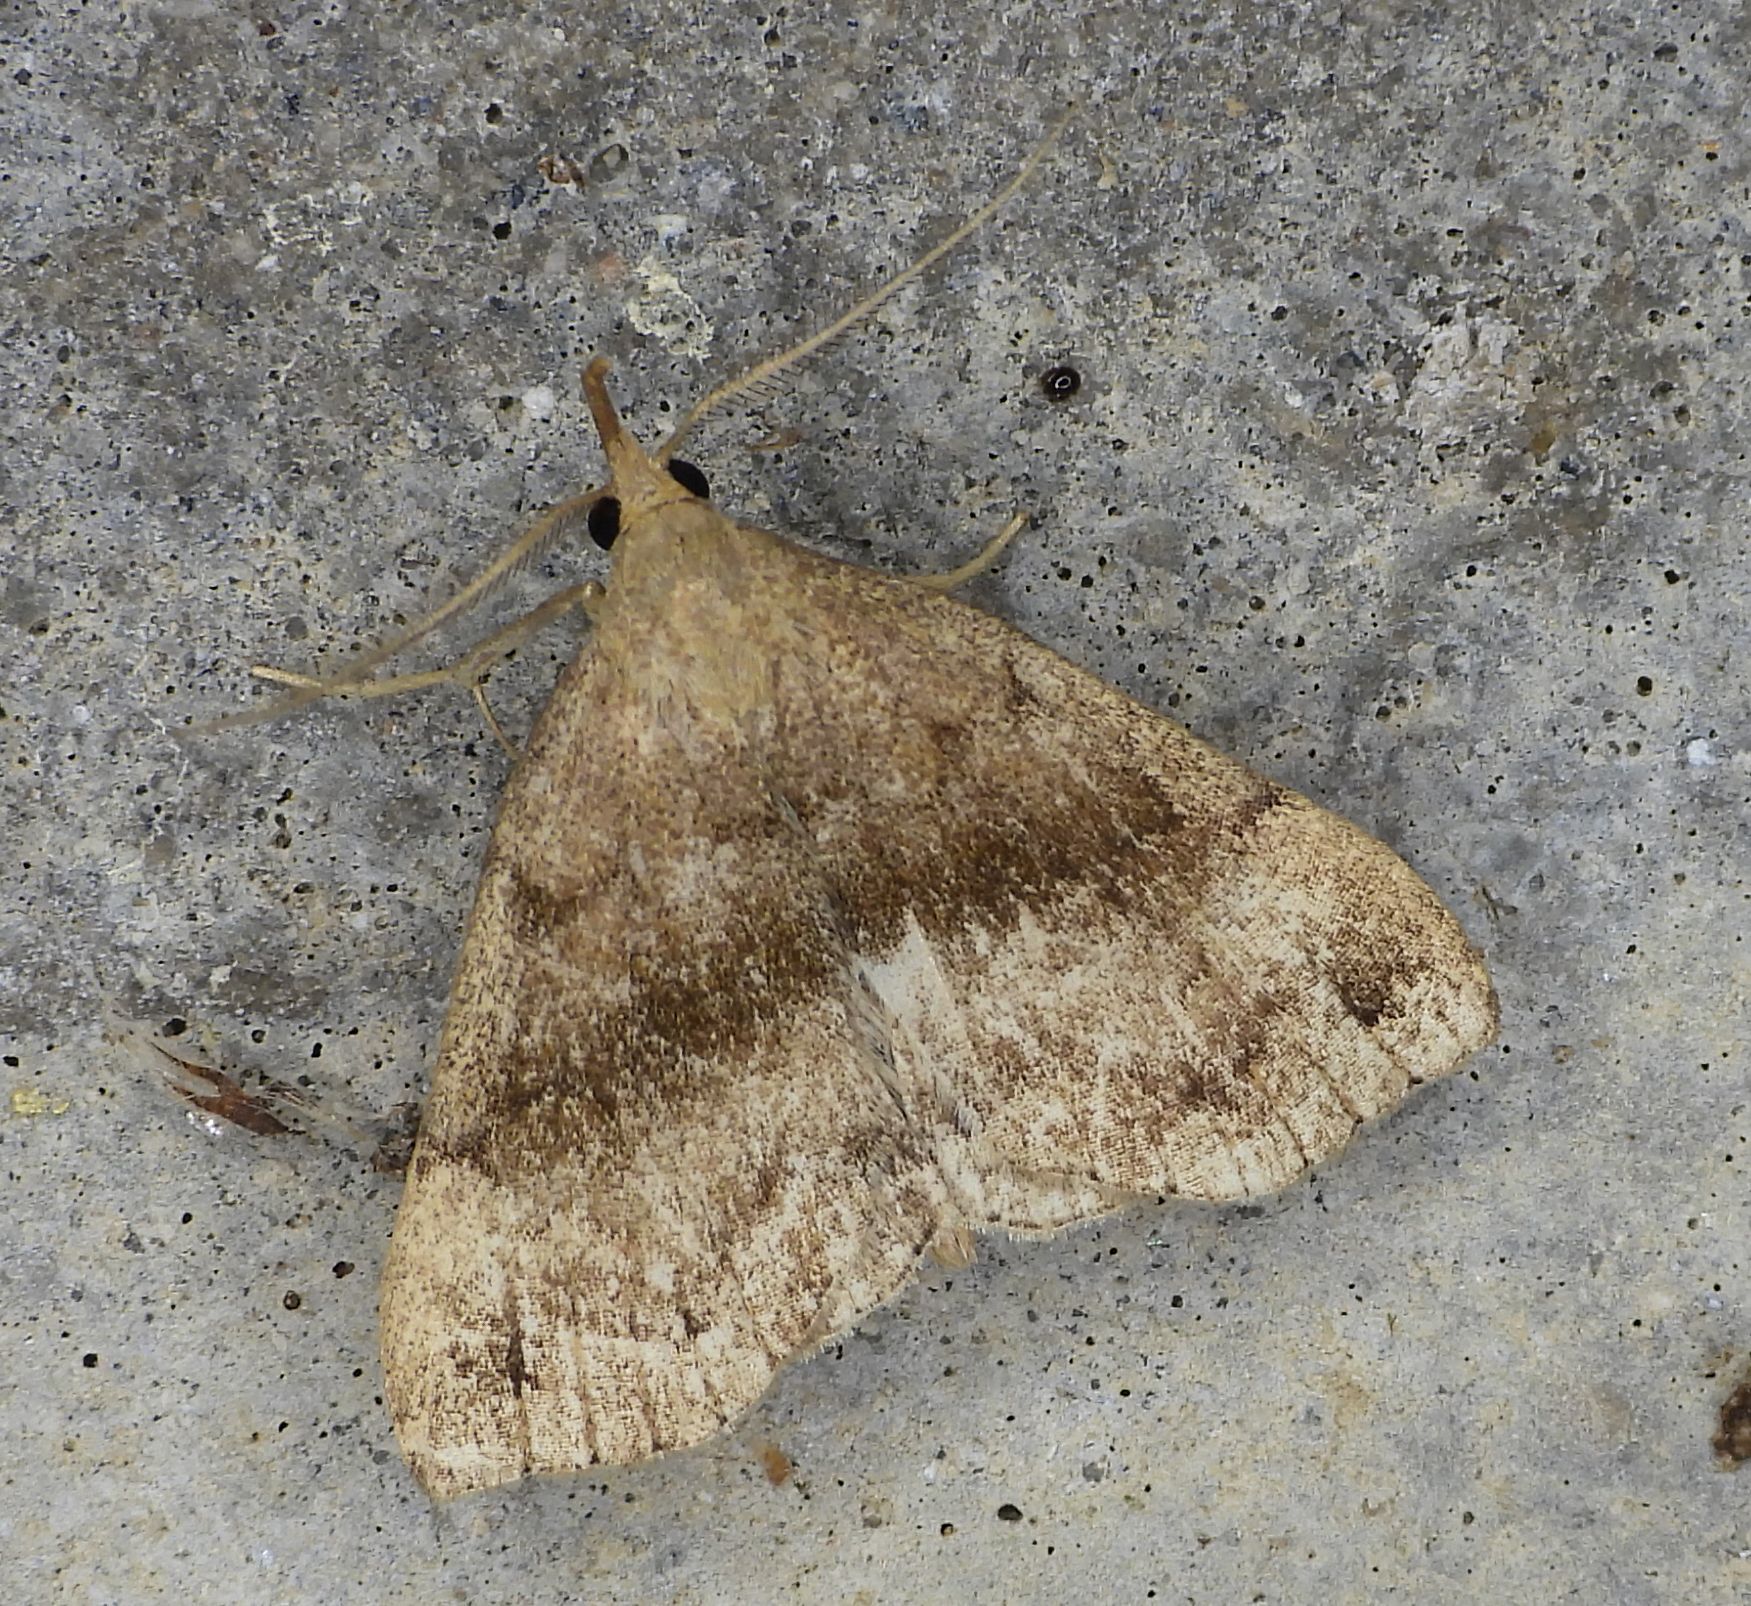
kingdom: Animalia
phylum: Arthropoda
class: Insecta
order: Lepidoptera
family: Erebidae
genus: Phalaenostola
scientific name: Phalaenostola eumelusalis
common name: Dark phalaenostola moth
